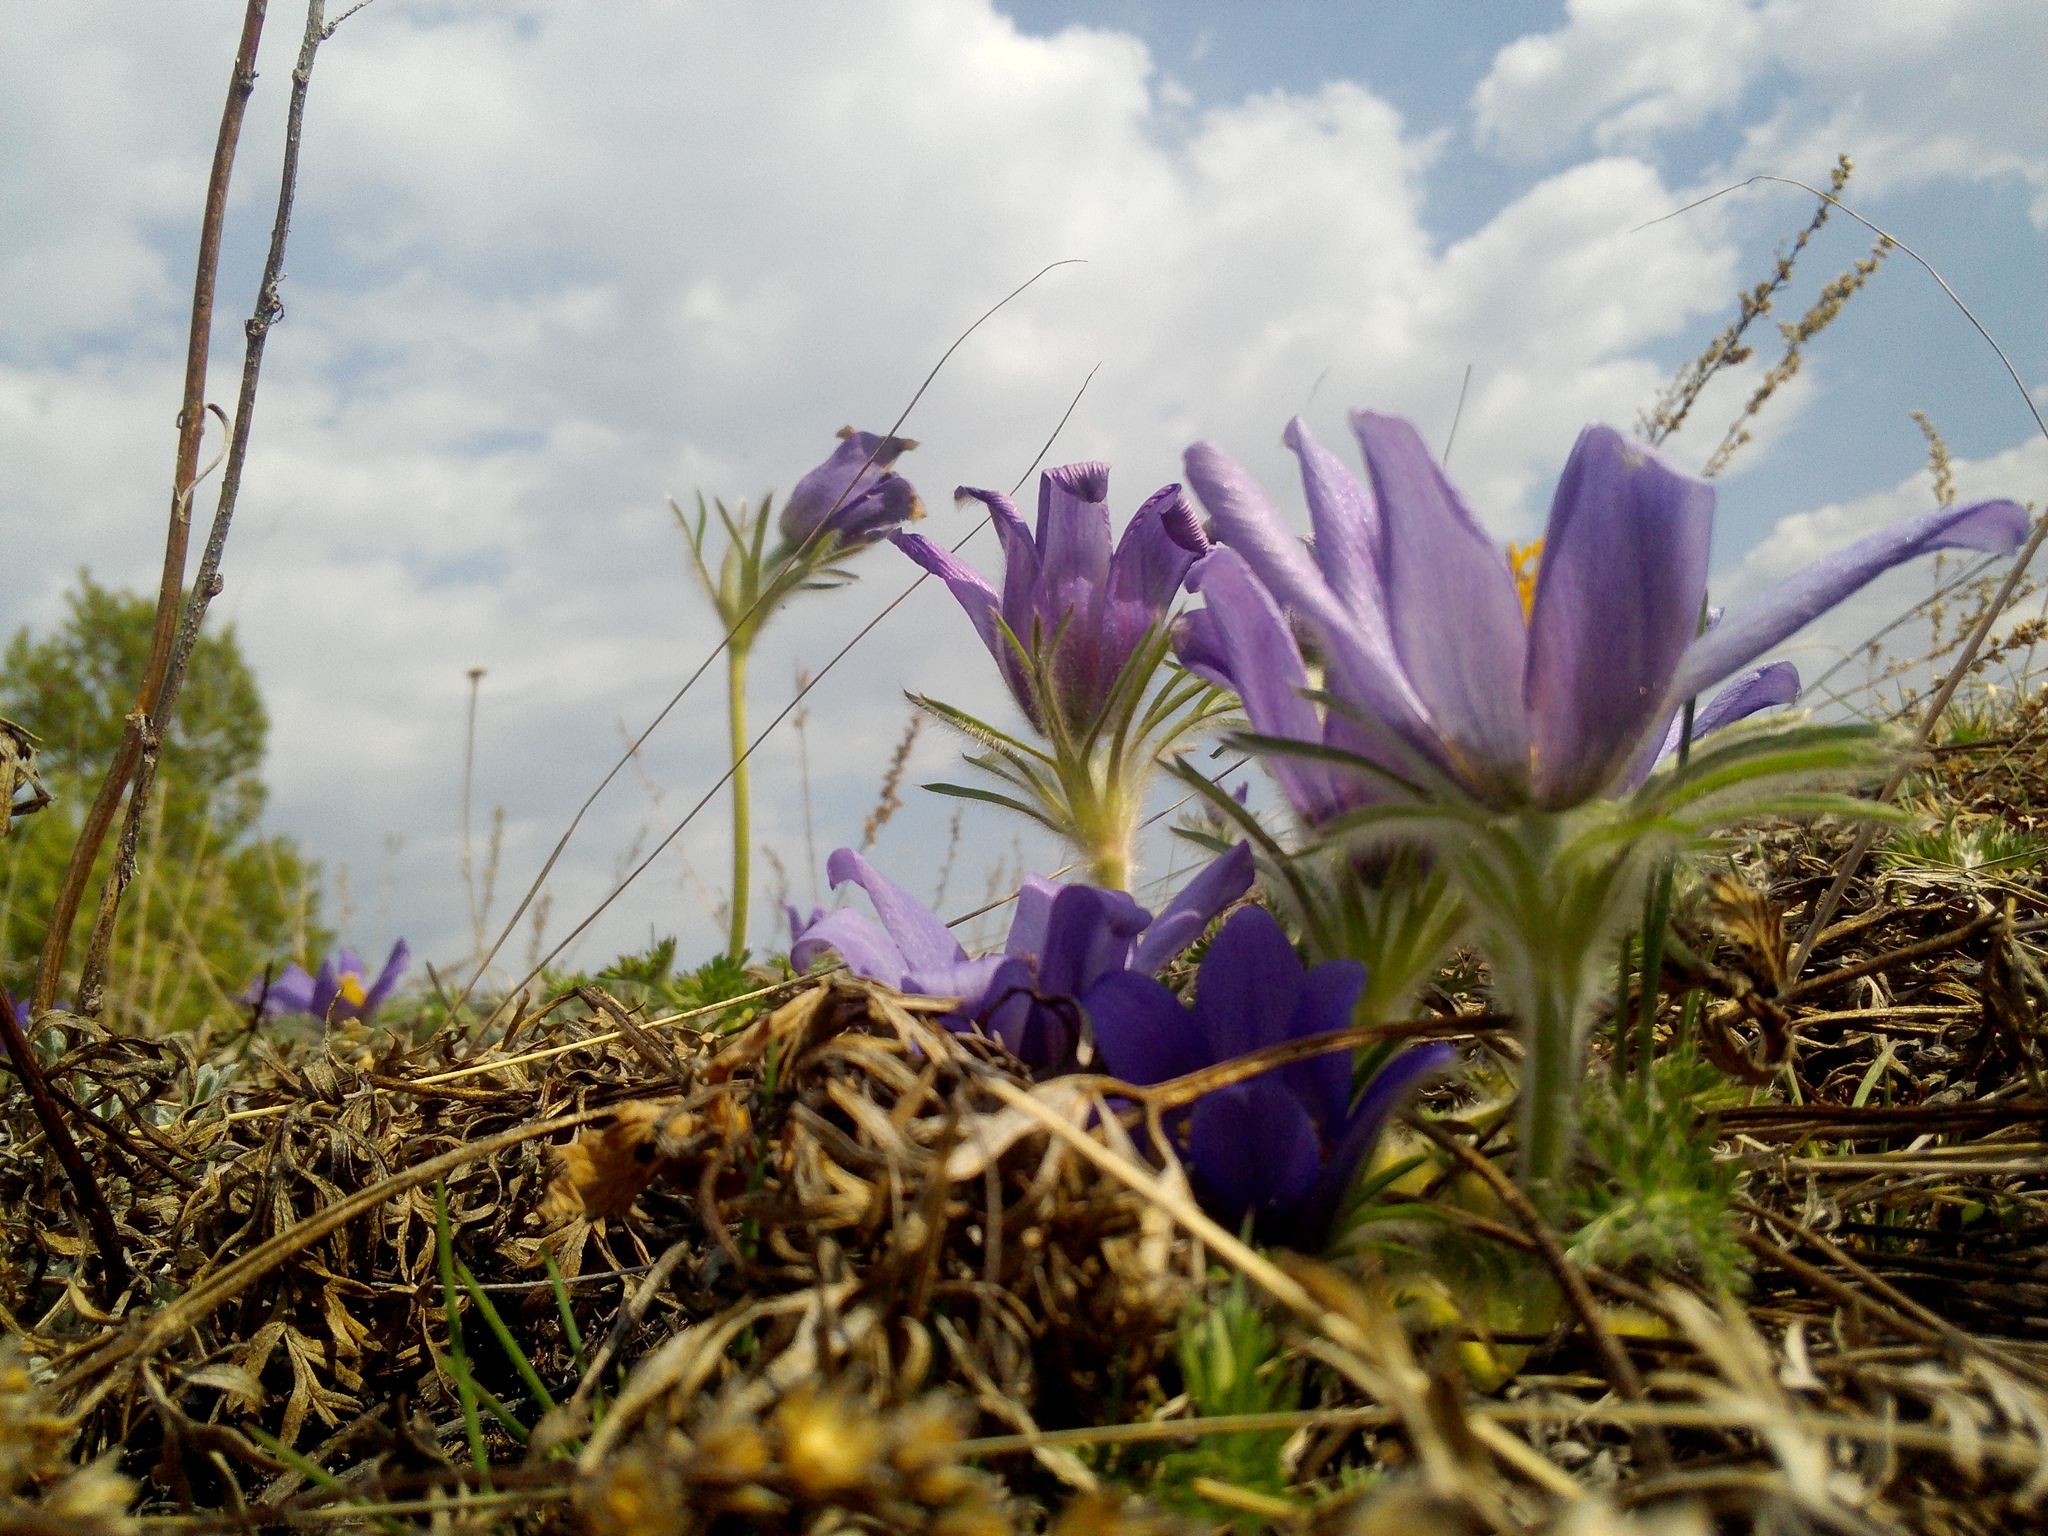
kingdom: Plantae
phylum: Tracheophyta
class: Magnoliopsida
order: Ranunculales
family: Ranunculaceae
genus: Pulsatilla
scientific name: Pulsatilla turczaninovii
